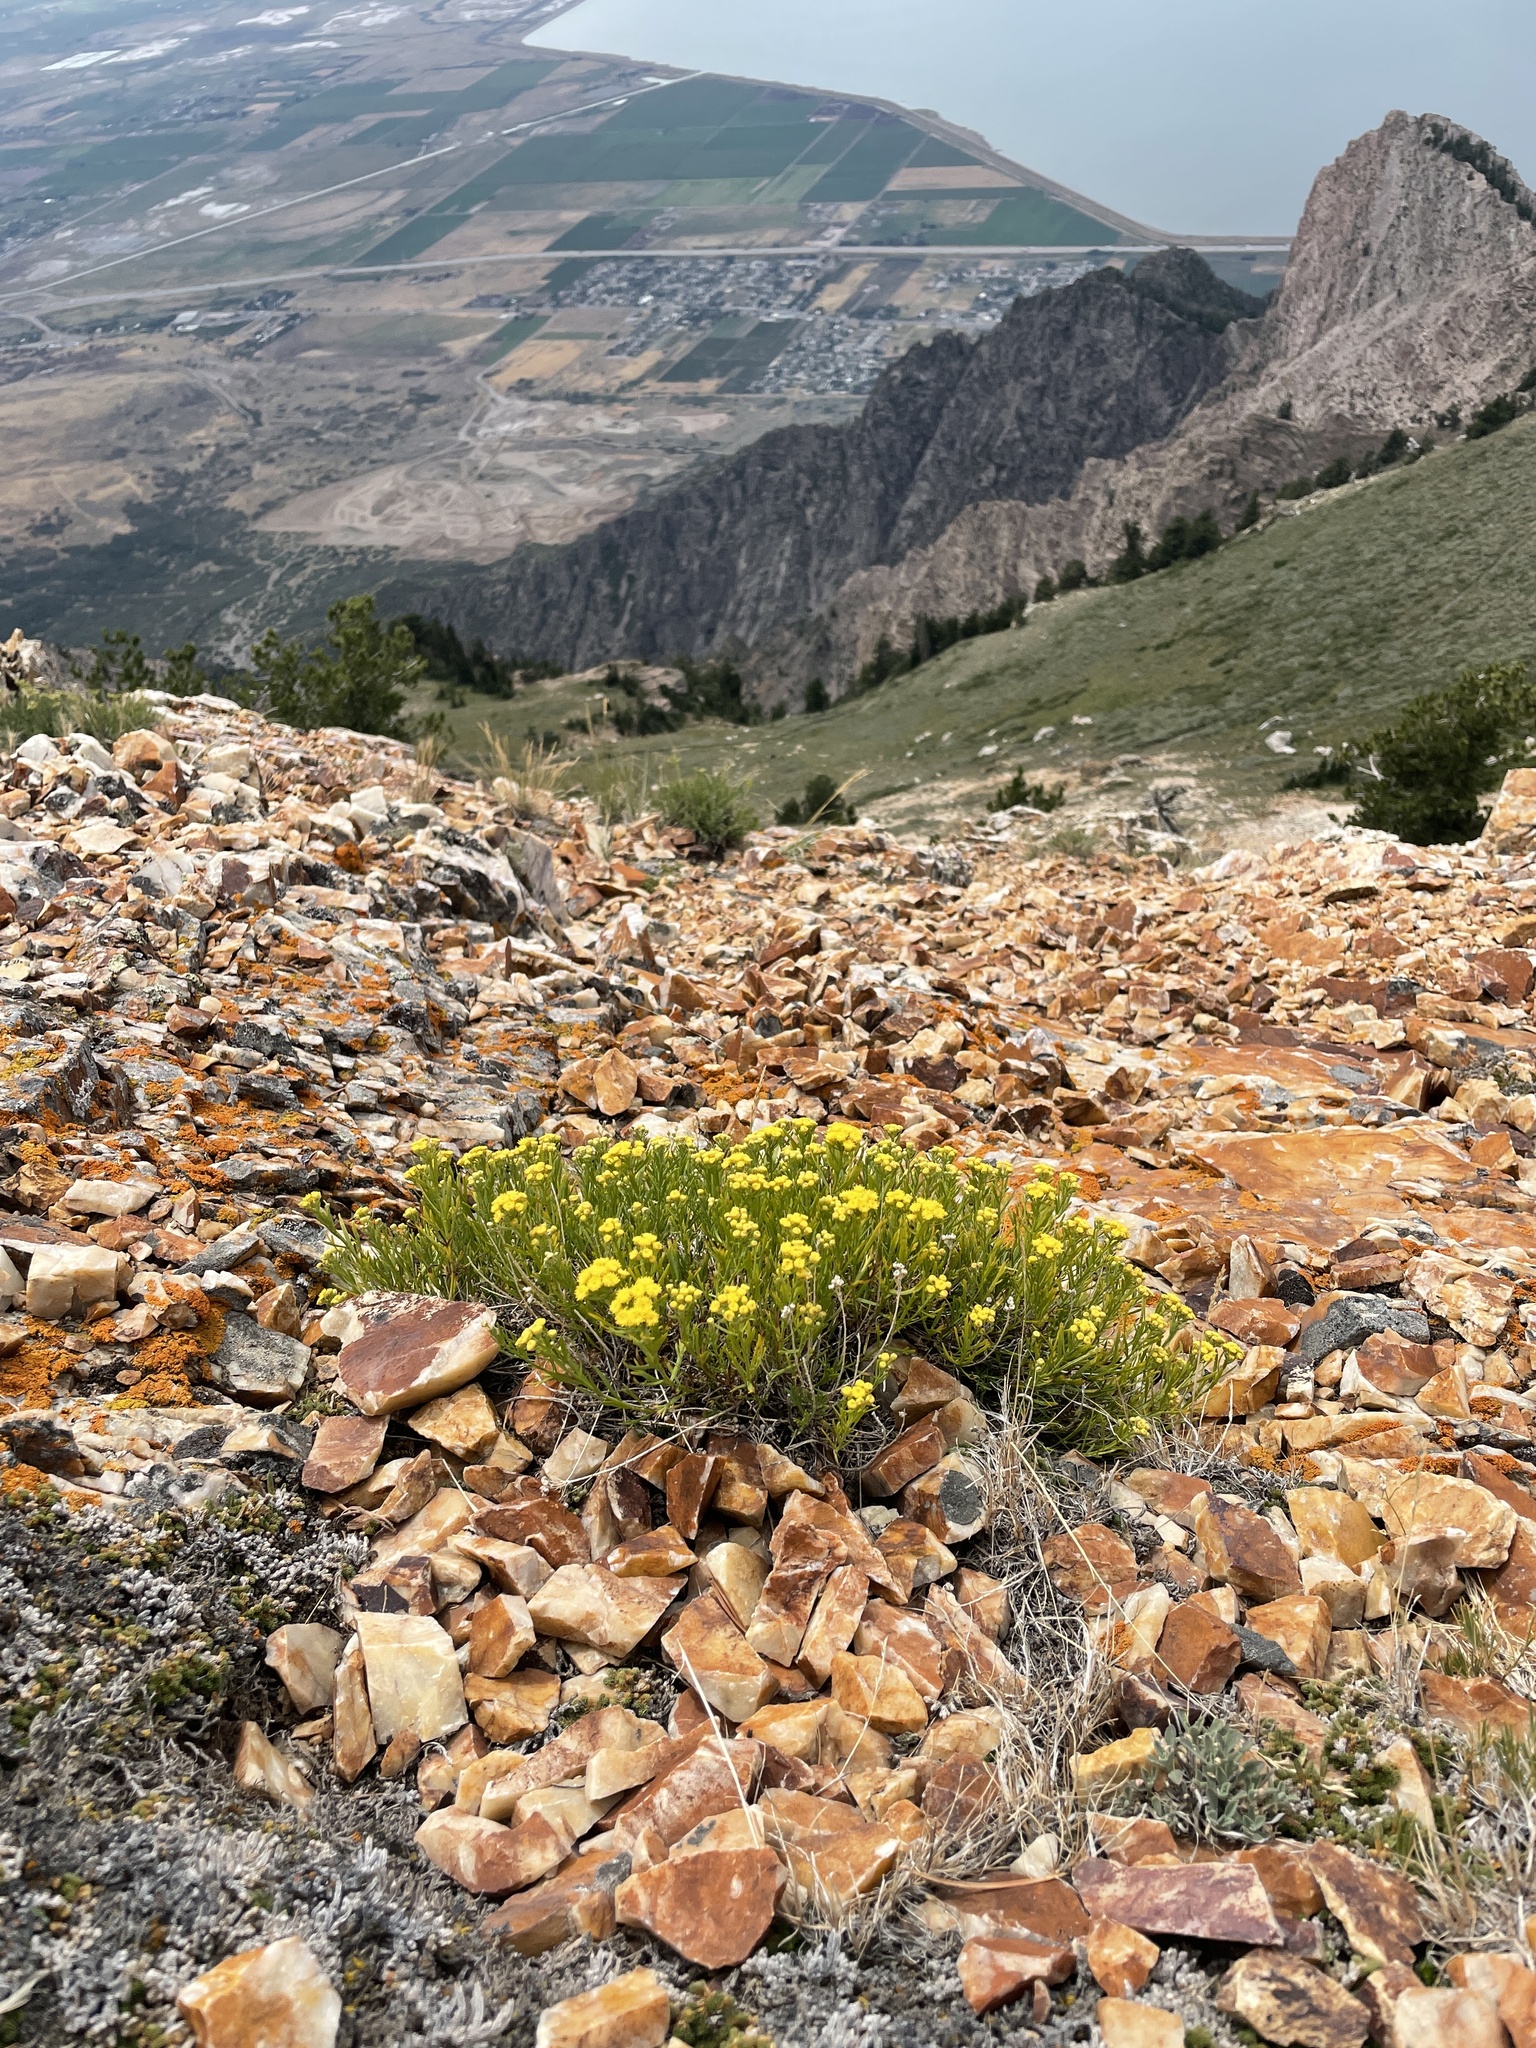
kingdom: Plantae
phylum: Tracheophyta
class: Magnoliopsida
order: Asterales
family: Asteraceae
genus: Artemisia
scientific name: Artemisia inaequifolia
